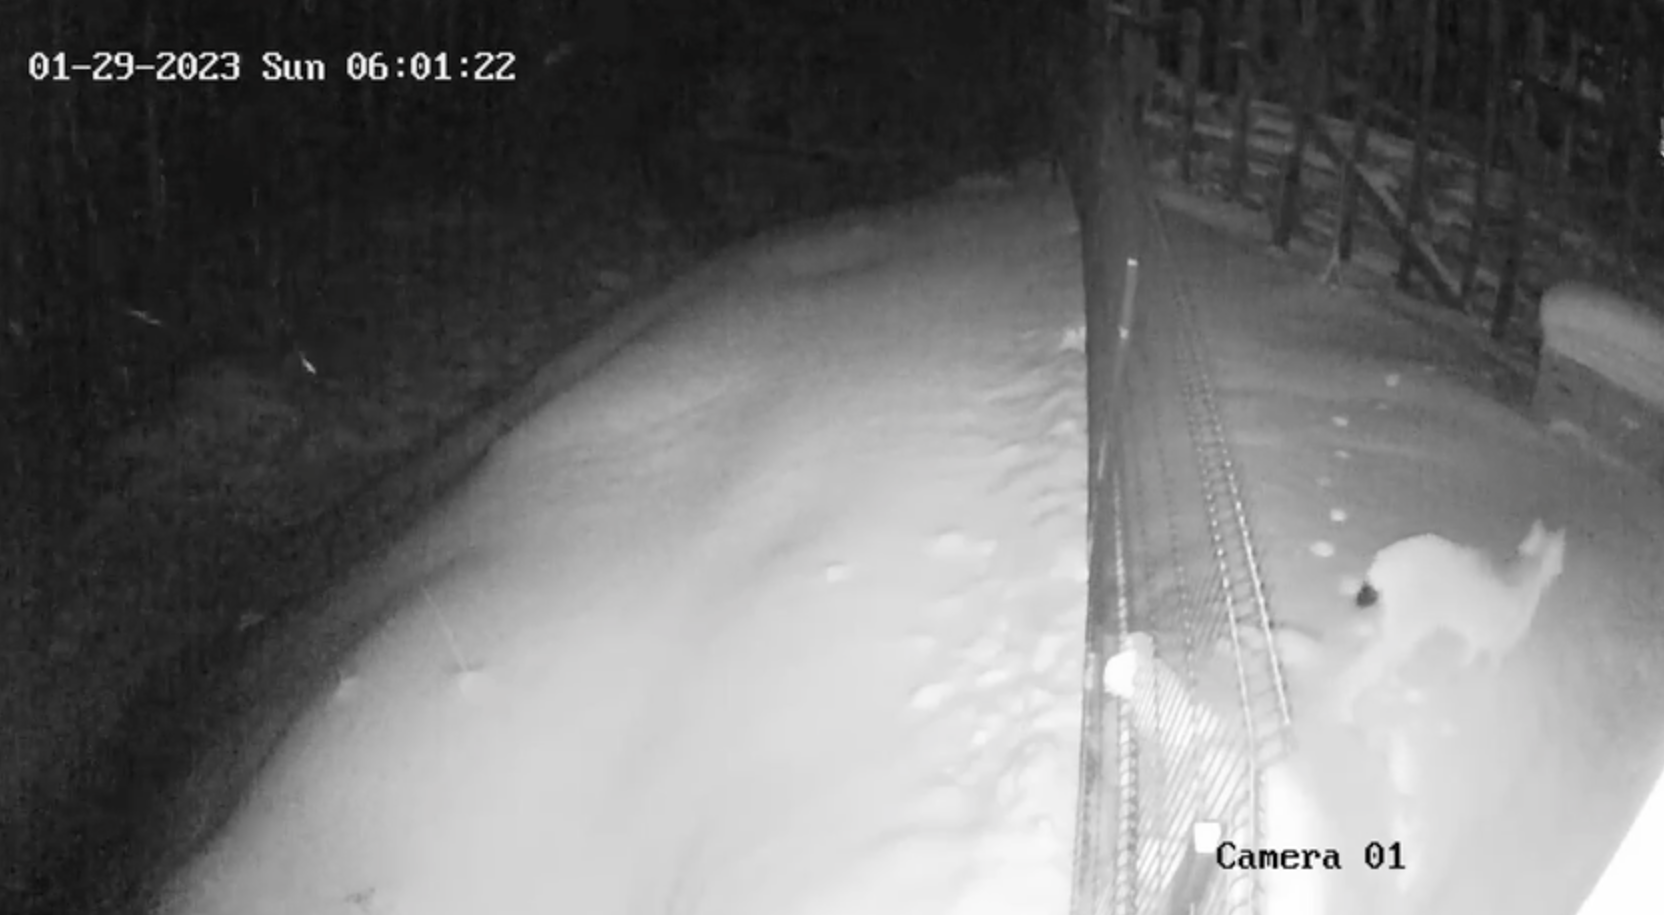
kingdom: Animalia
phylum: Chordata
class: Mammalia
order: Carnivora
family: Felidae
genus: Lynx
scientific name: Lynx lynx
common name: Eurasian lynx
